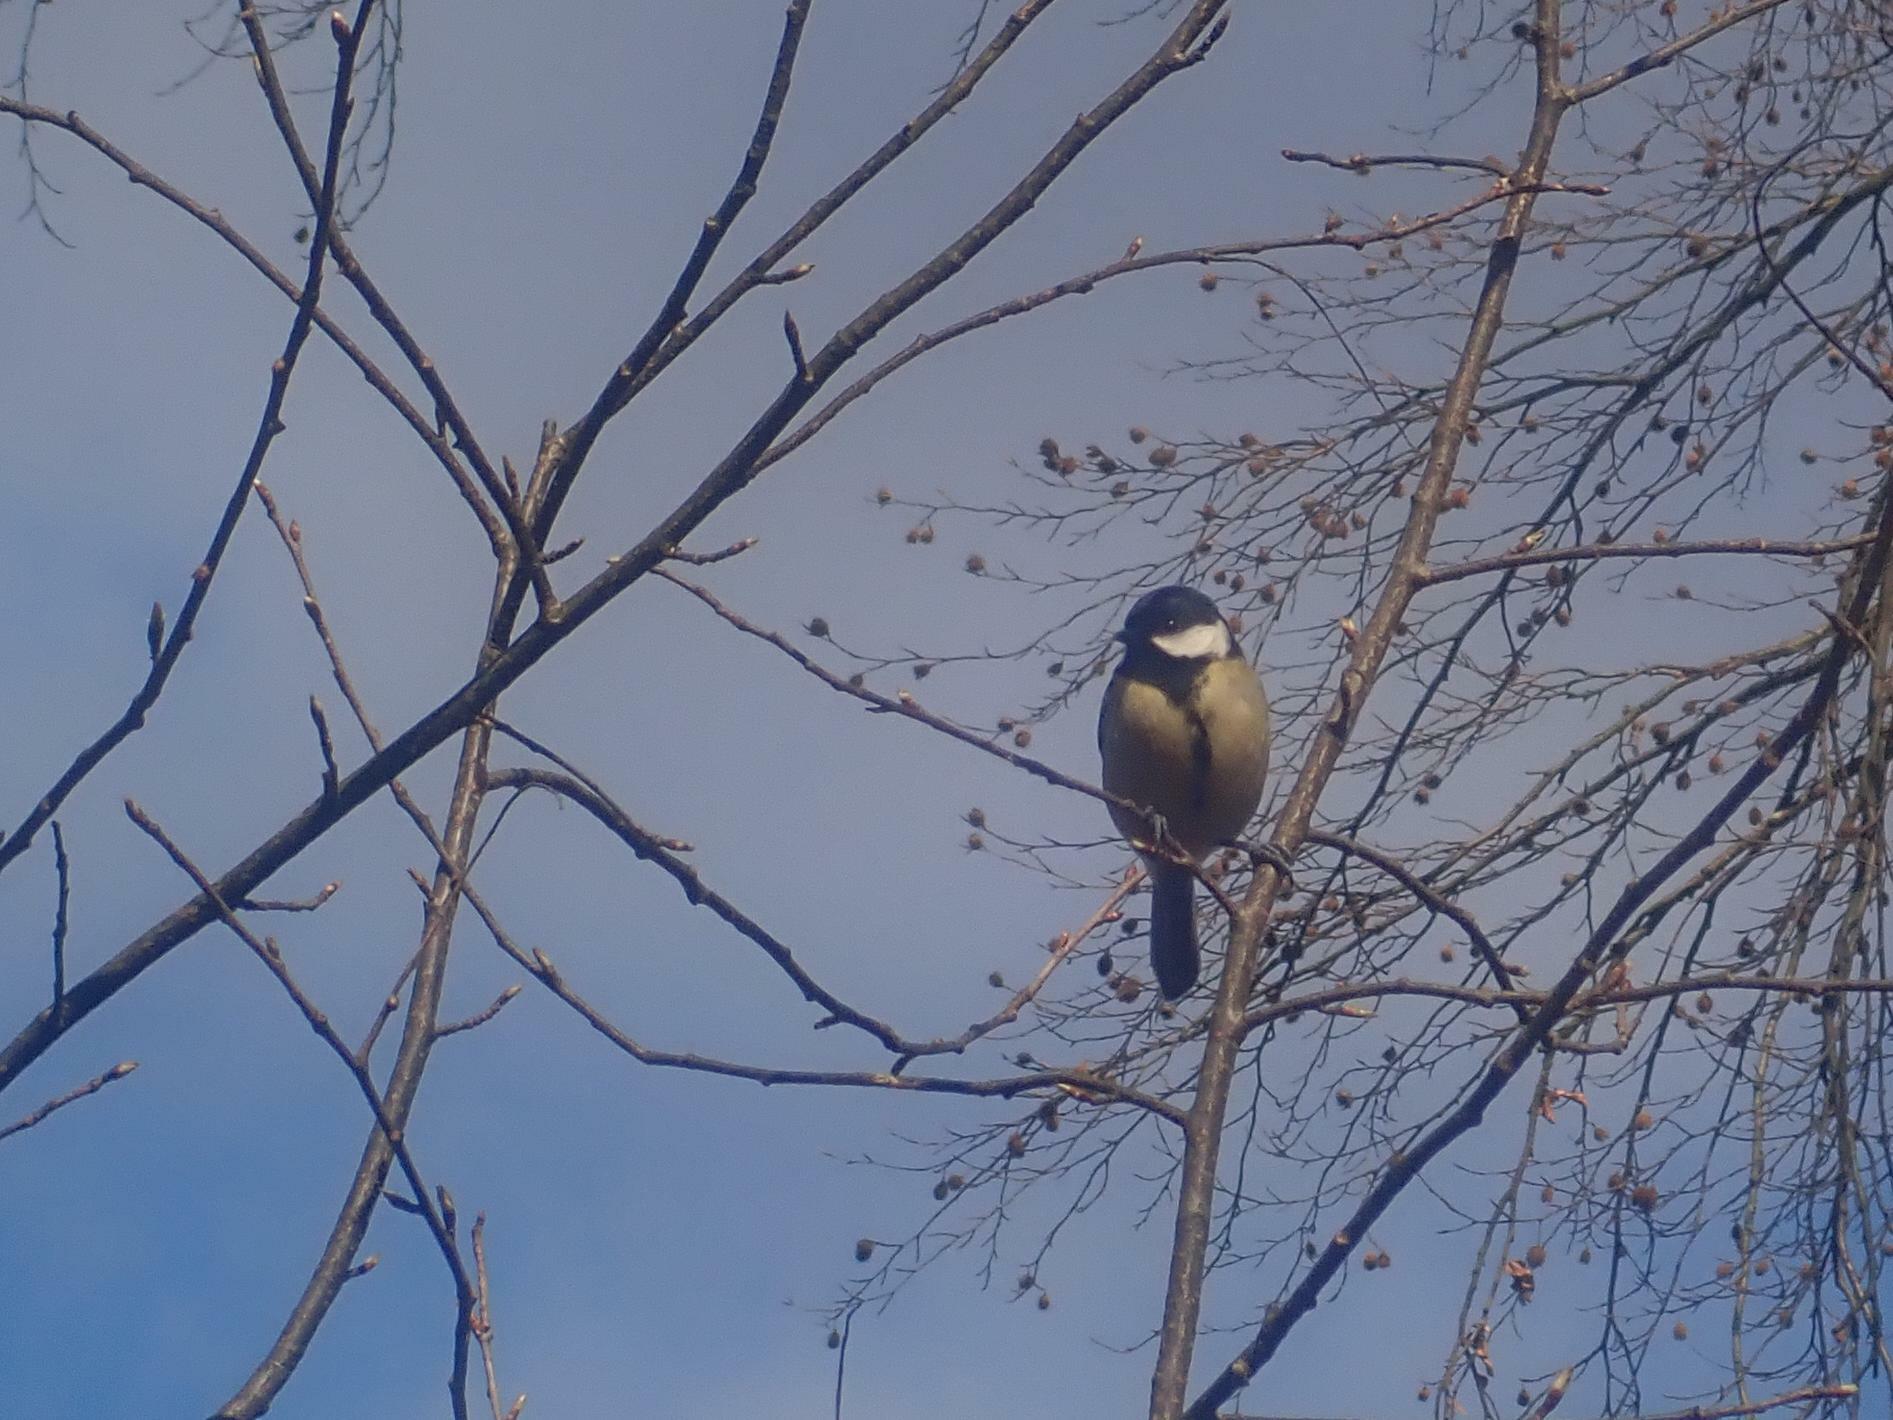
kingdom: Animalia
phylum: Chordata
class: Aves
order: Passeriformes
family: Paridae
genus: Parus
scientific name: Parus major
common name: Great tit
